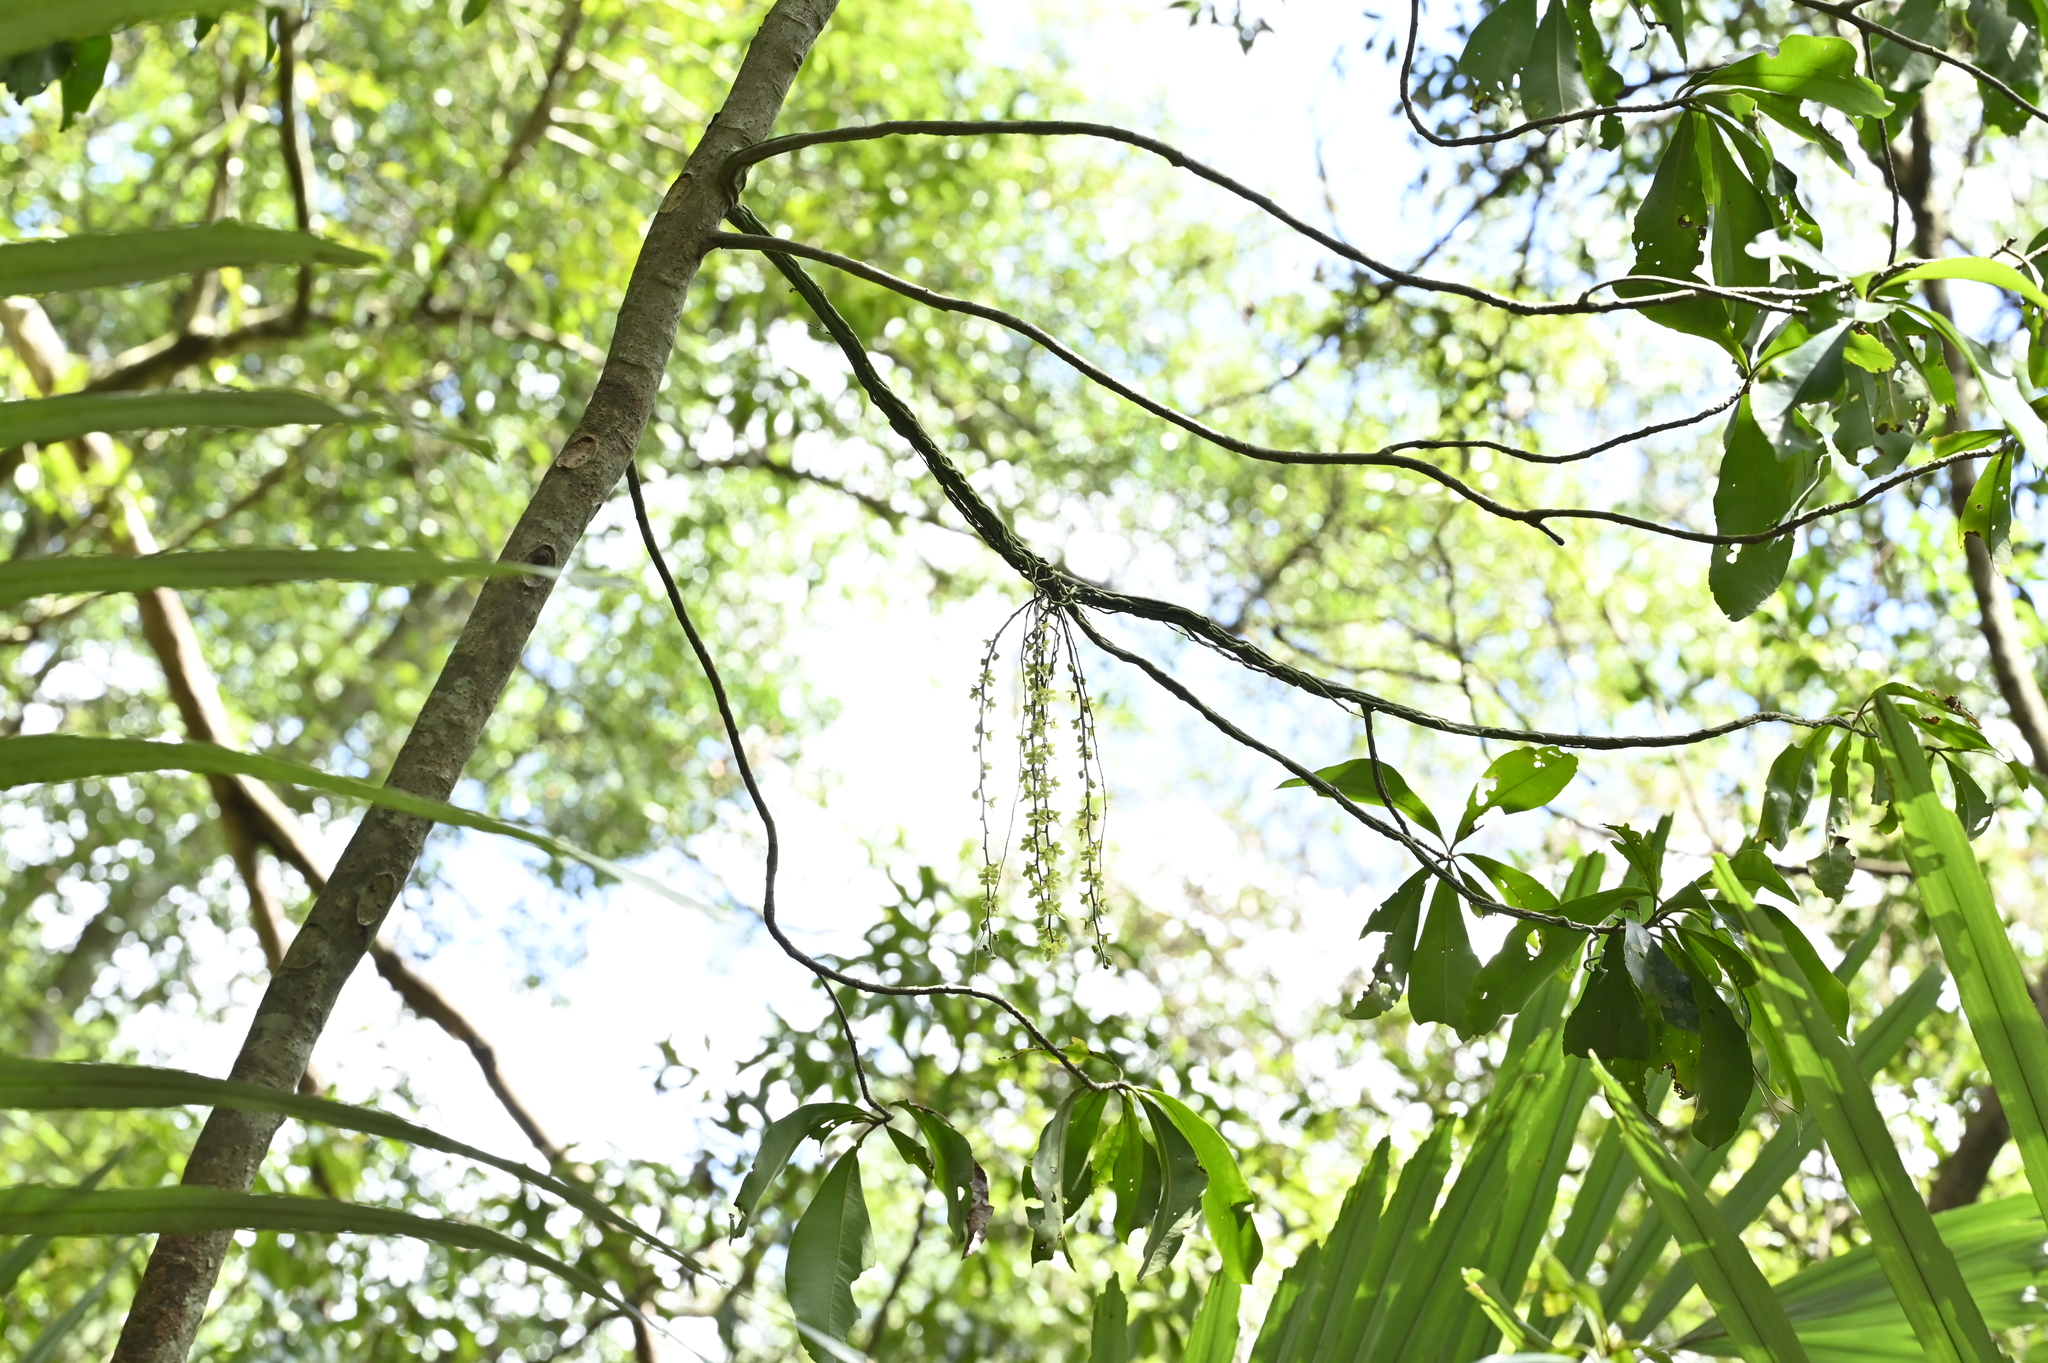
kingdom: Plantae
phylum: Tracheophyta
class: Liliopsida
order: Asparagales
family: Orchidaceae
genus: Chiloschista
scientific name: Chiloschista segawae
